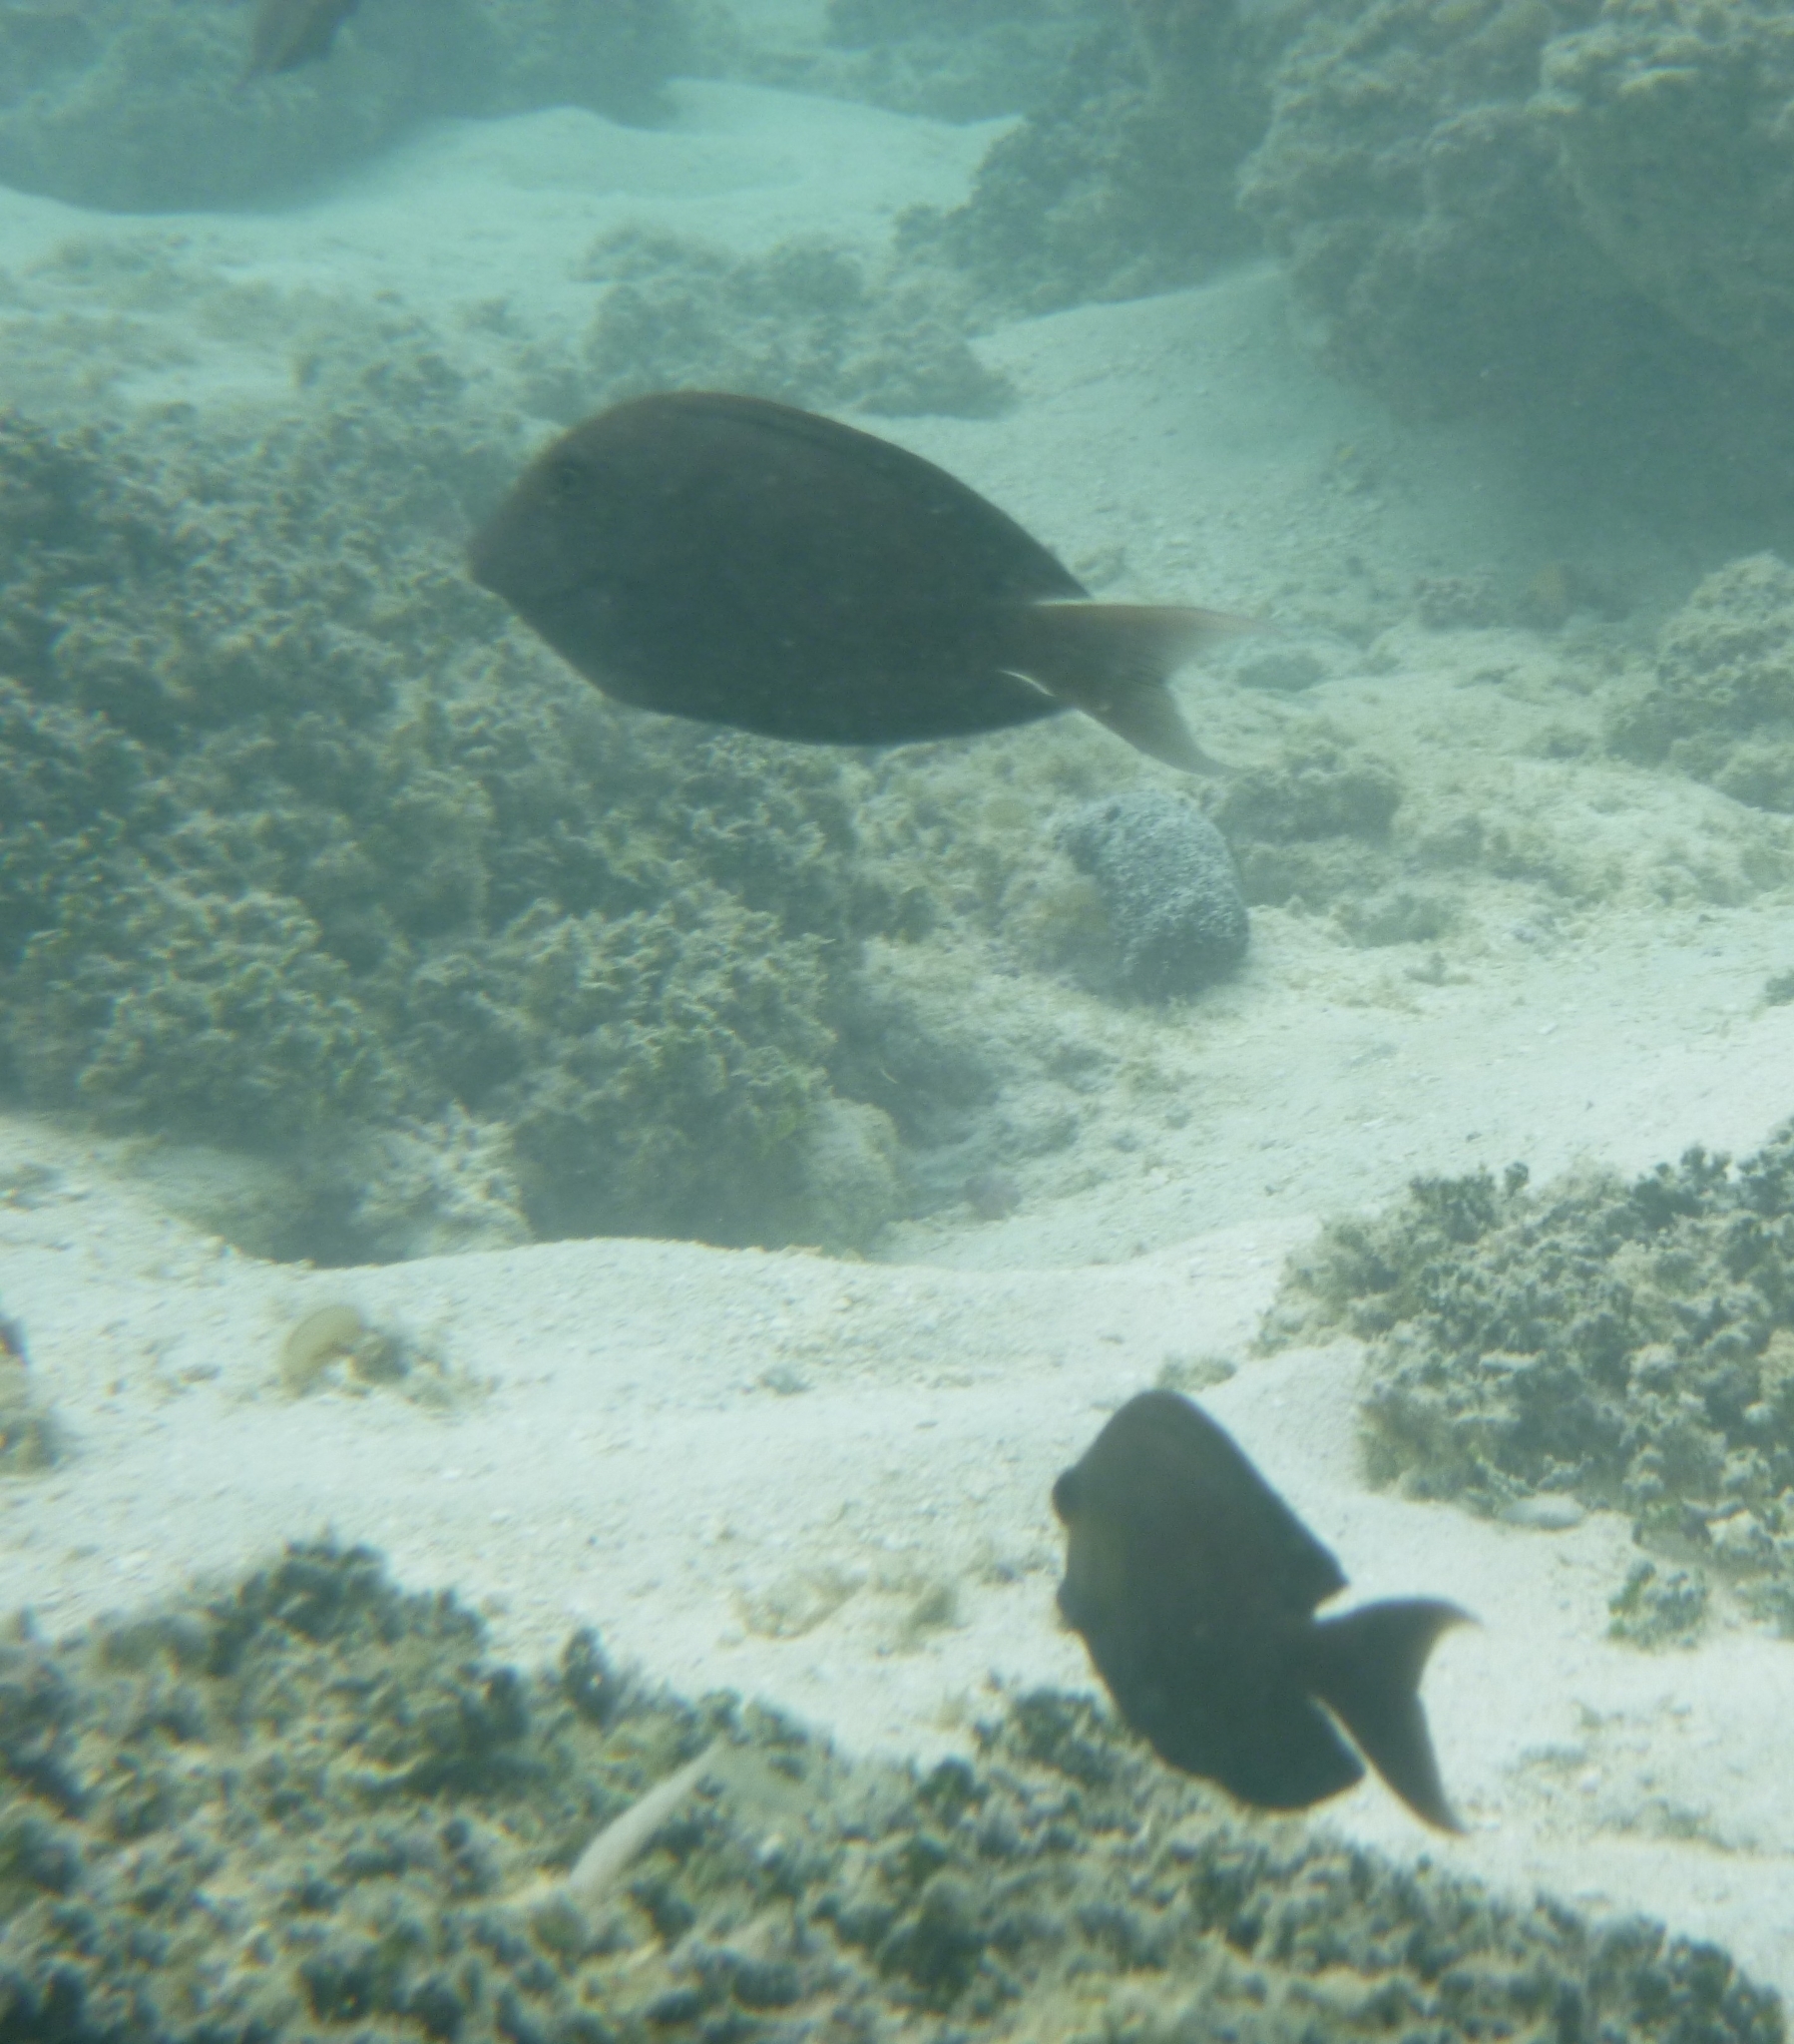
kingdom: Animalia
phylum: Chordata
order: Perciformes
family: Acanthuridae
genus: Ctenochaetus
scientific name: Ctenochaetus striatus
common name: Bristle-toothed surgeonfish
